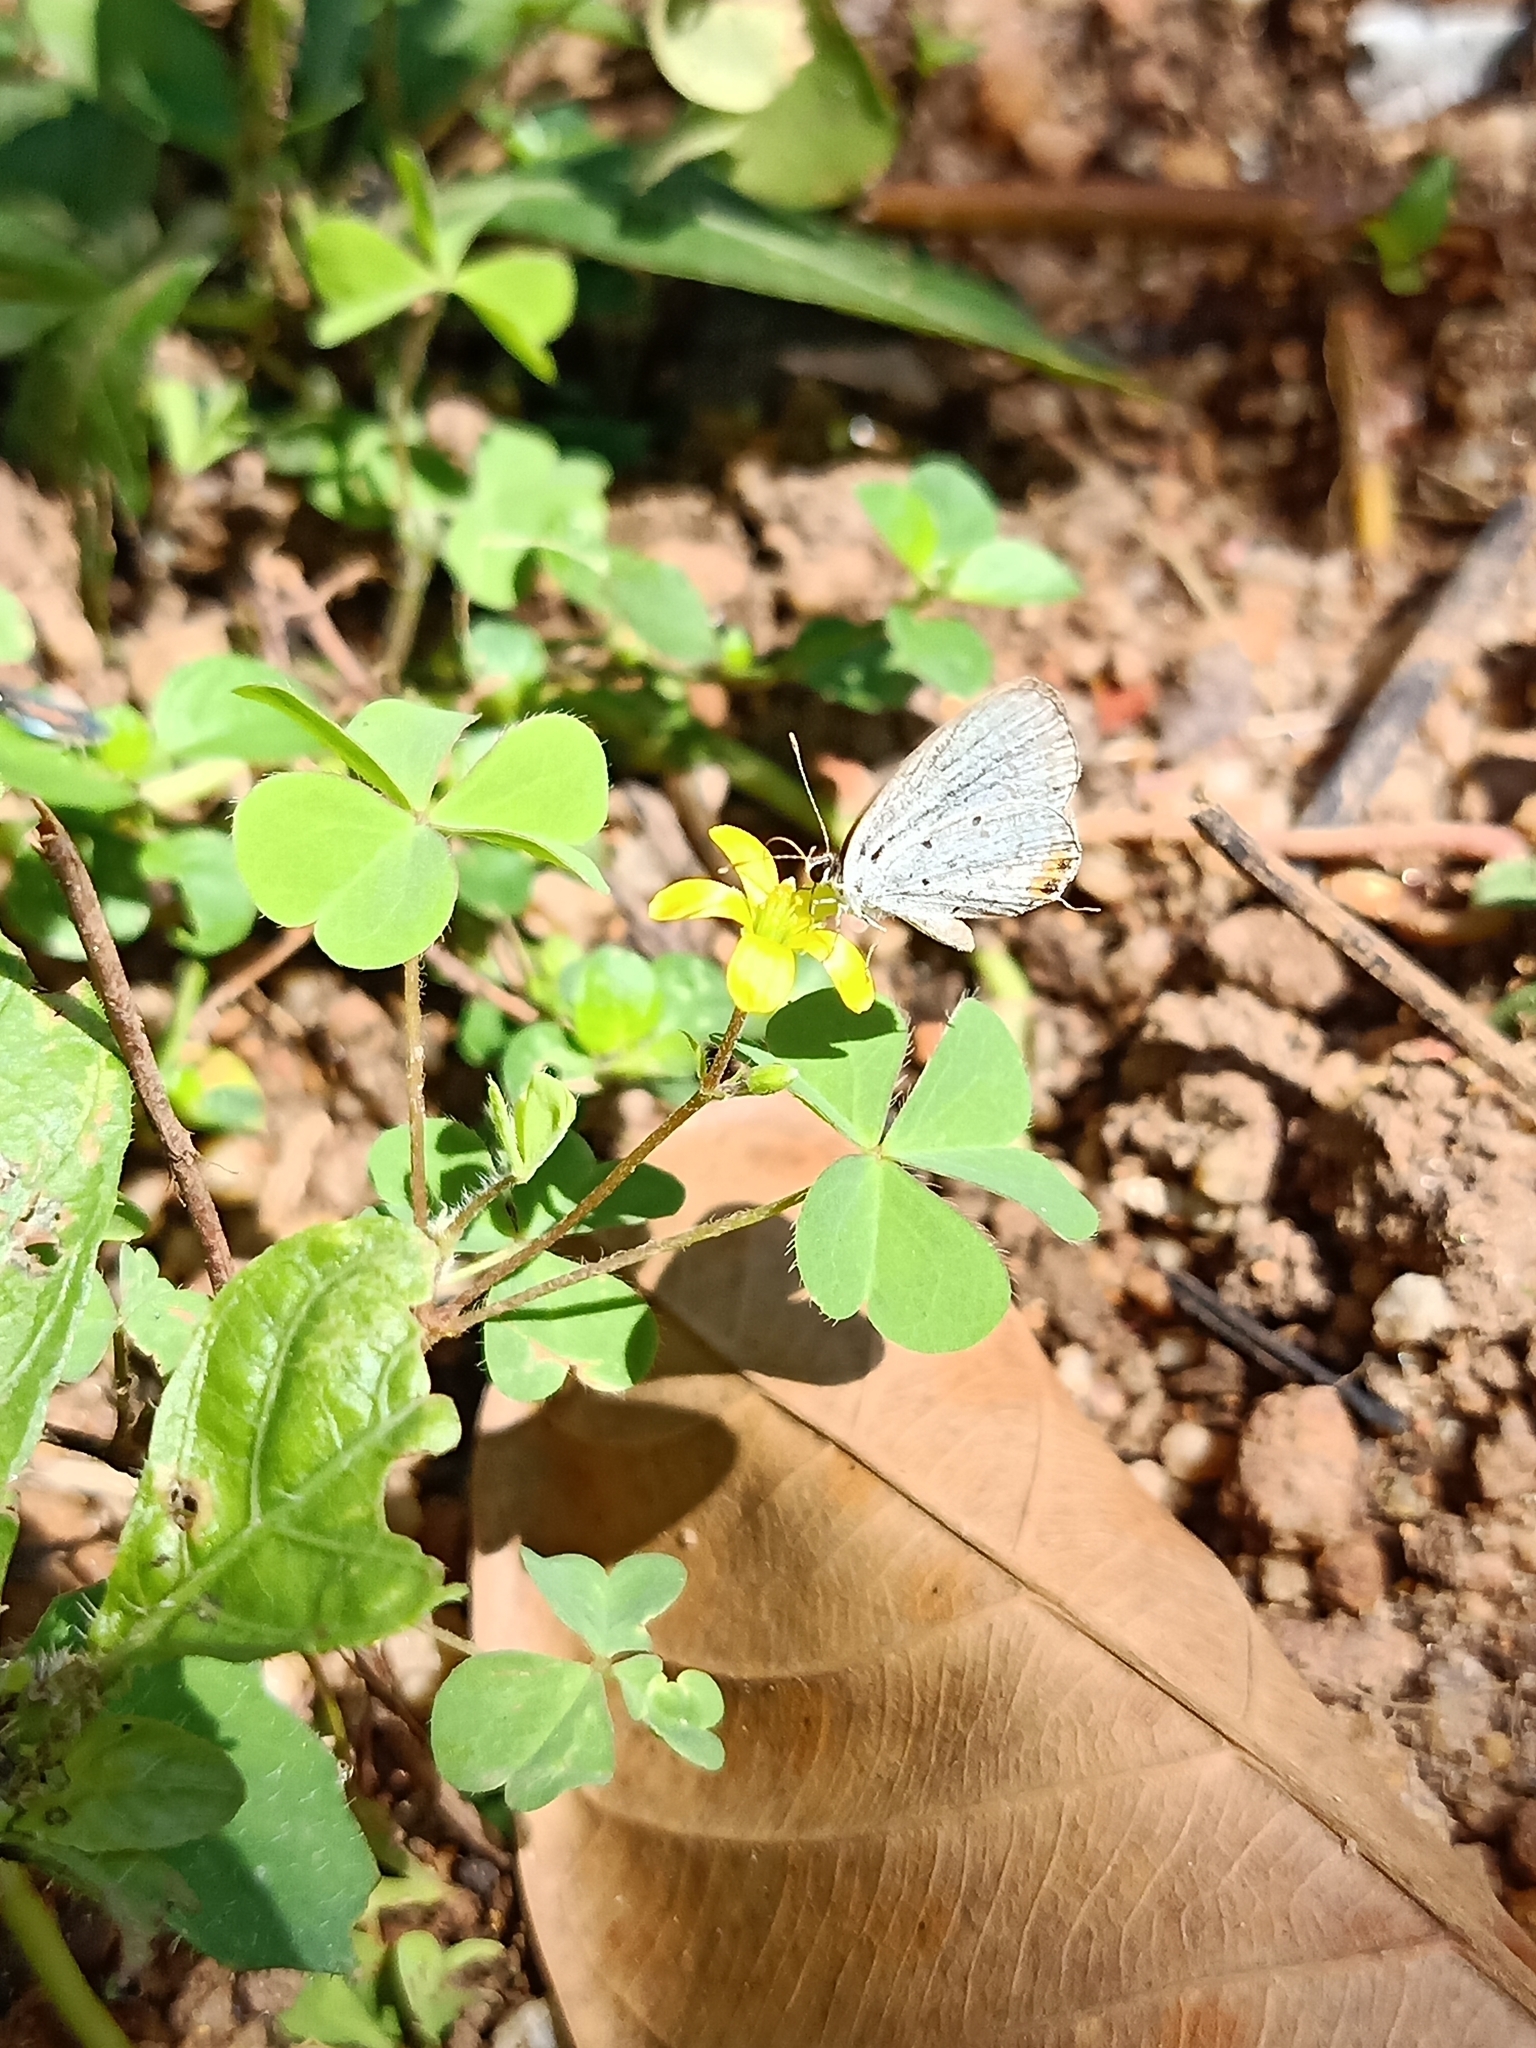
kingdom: Animalia
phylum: Arthropoda
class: Insecta
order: Lepidoptera
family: Lycaenidae
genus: Everes
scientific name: Everes lacturnus
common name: Orange-tipped pea-blue
